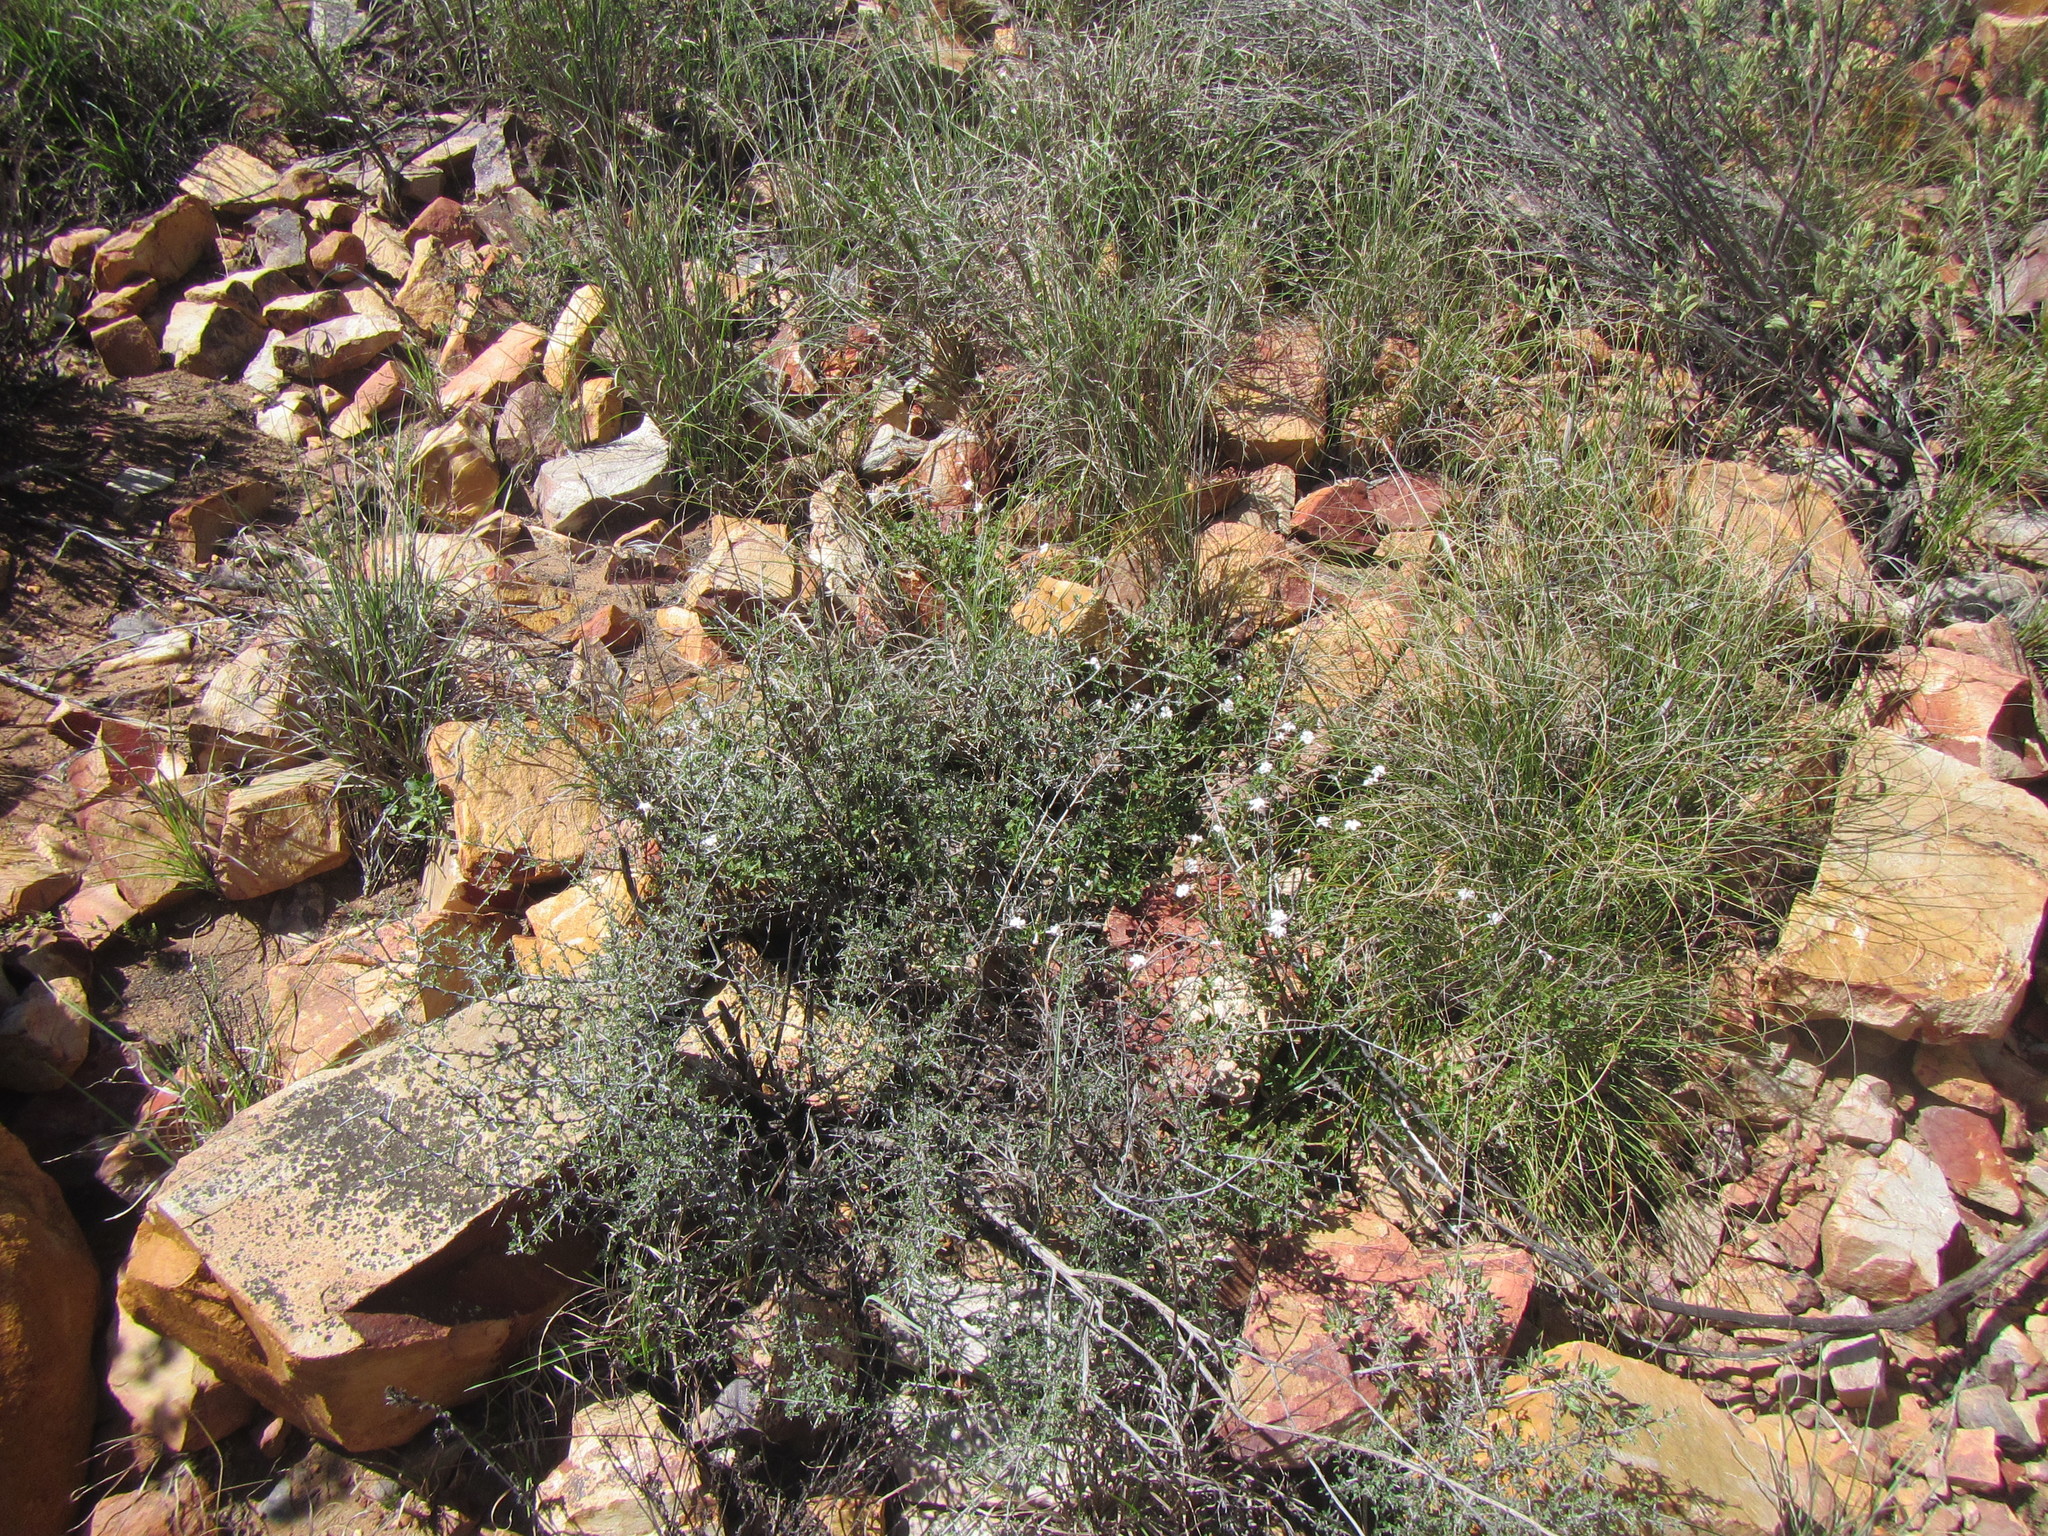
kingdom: Plantae
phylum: Tracheophyta
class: Magnoliopsida
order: Lamiales
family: Verbenaceae
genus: Chascanum
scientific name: Chascanum cuneifolium
